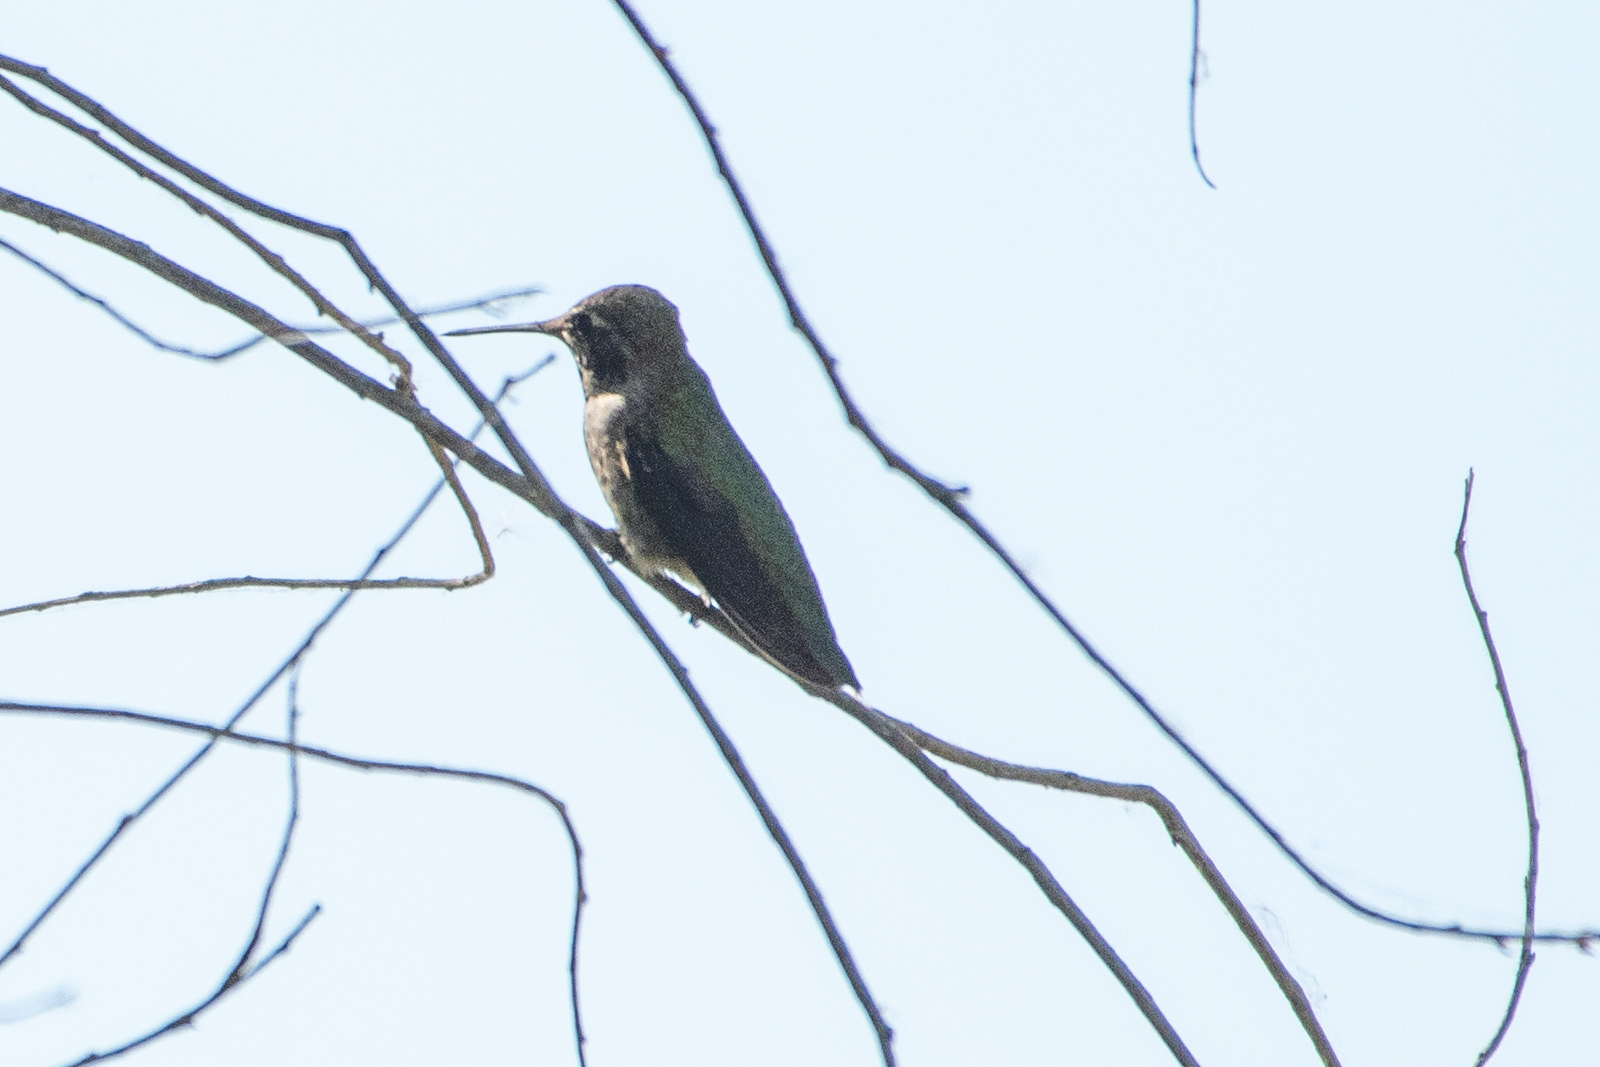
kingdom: Animalia
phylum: Chordata
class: Aves
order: Apodiformes
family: Trochilidae
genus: Calypte
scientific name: Calypte anna
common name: Anna's hummingbird
